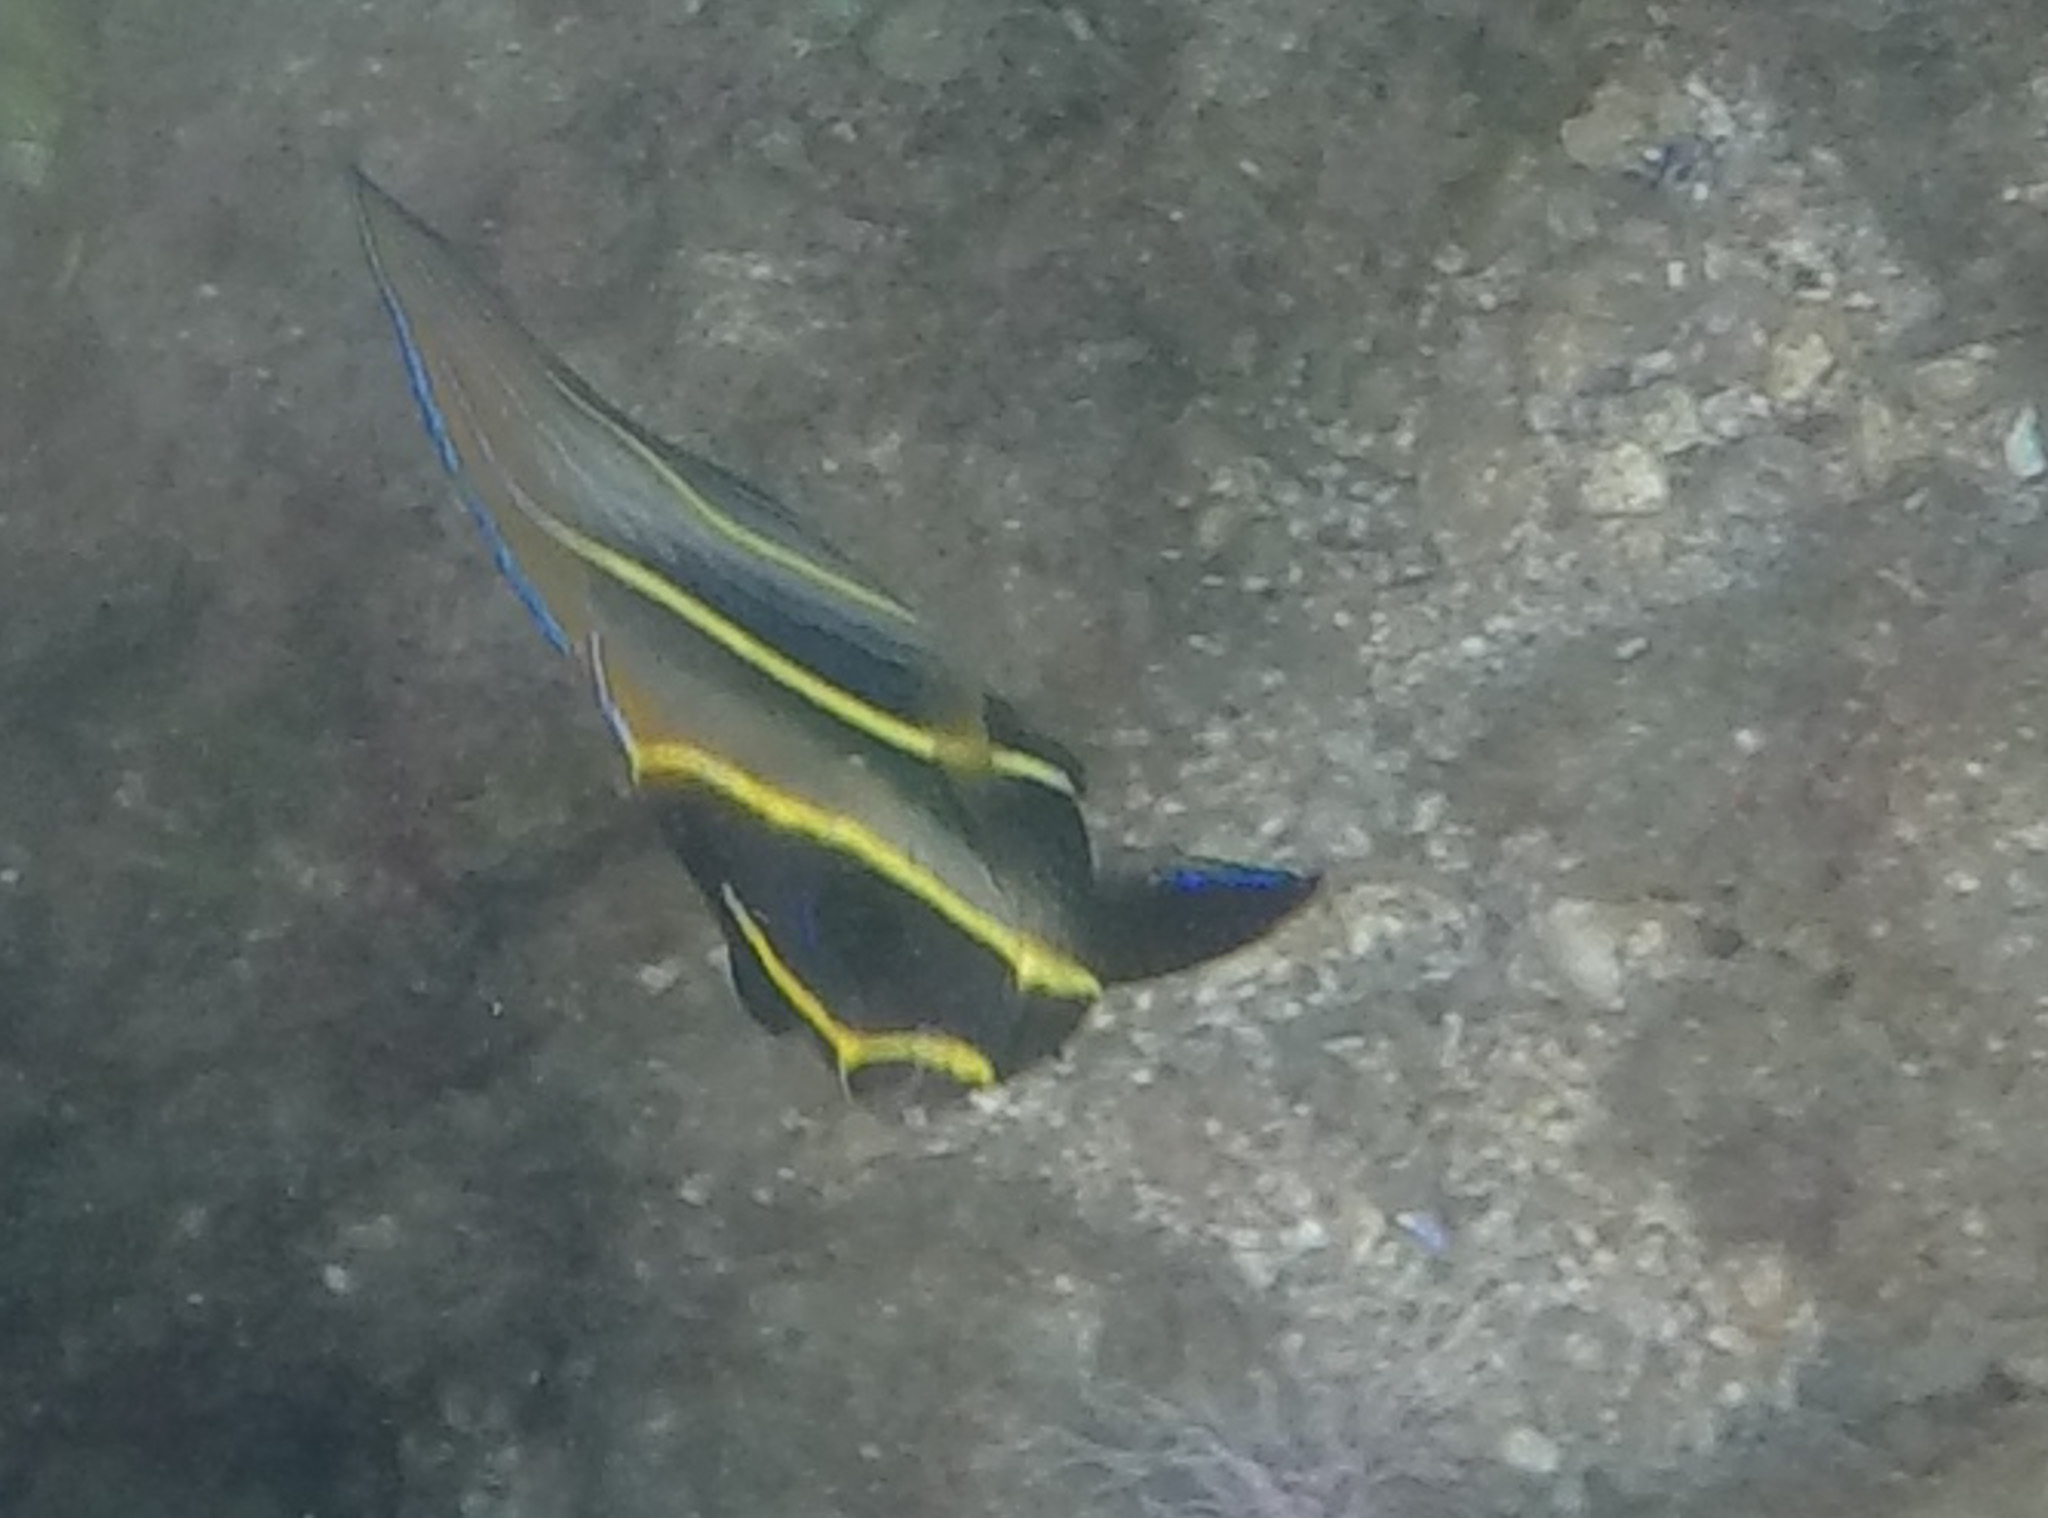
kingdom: Animalia
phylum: Chordata
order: Perciformes
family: Pomacanthidae
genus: Pomacanthus
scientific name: Pomacanthus zonipectus
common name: Cortez angelfish
